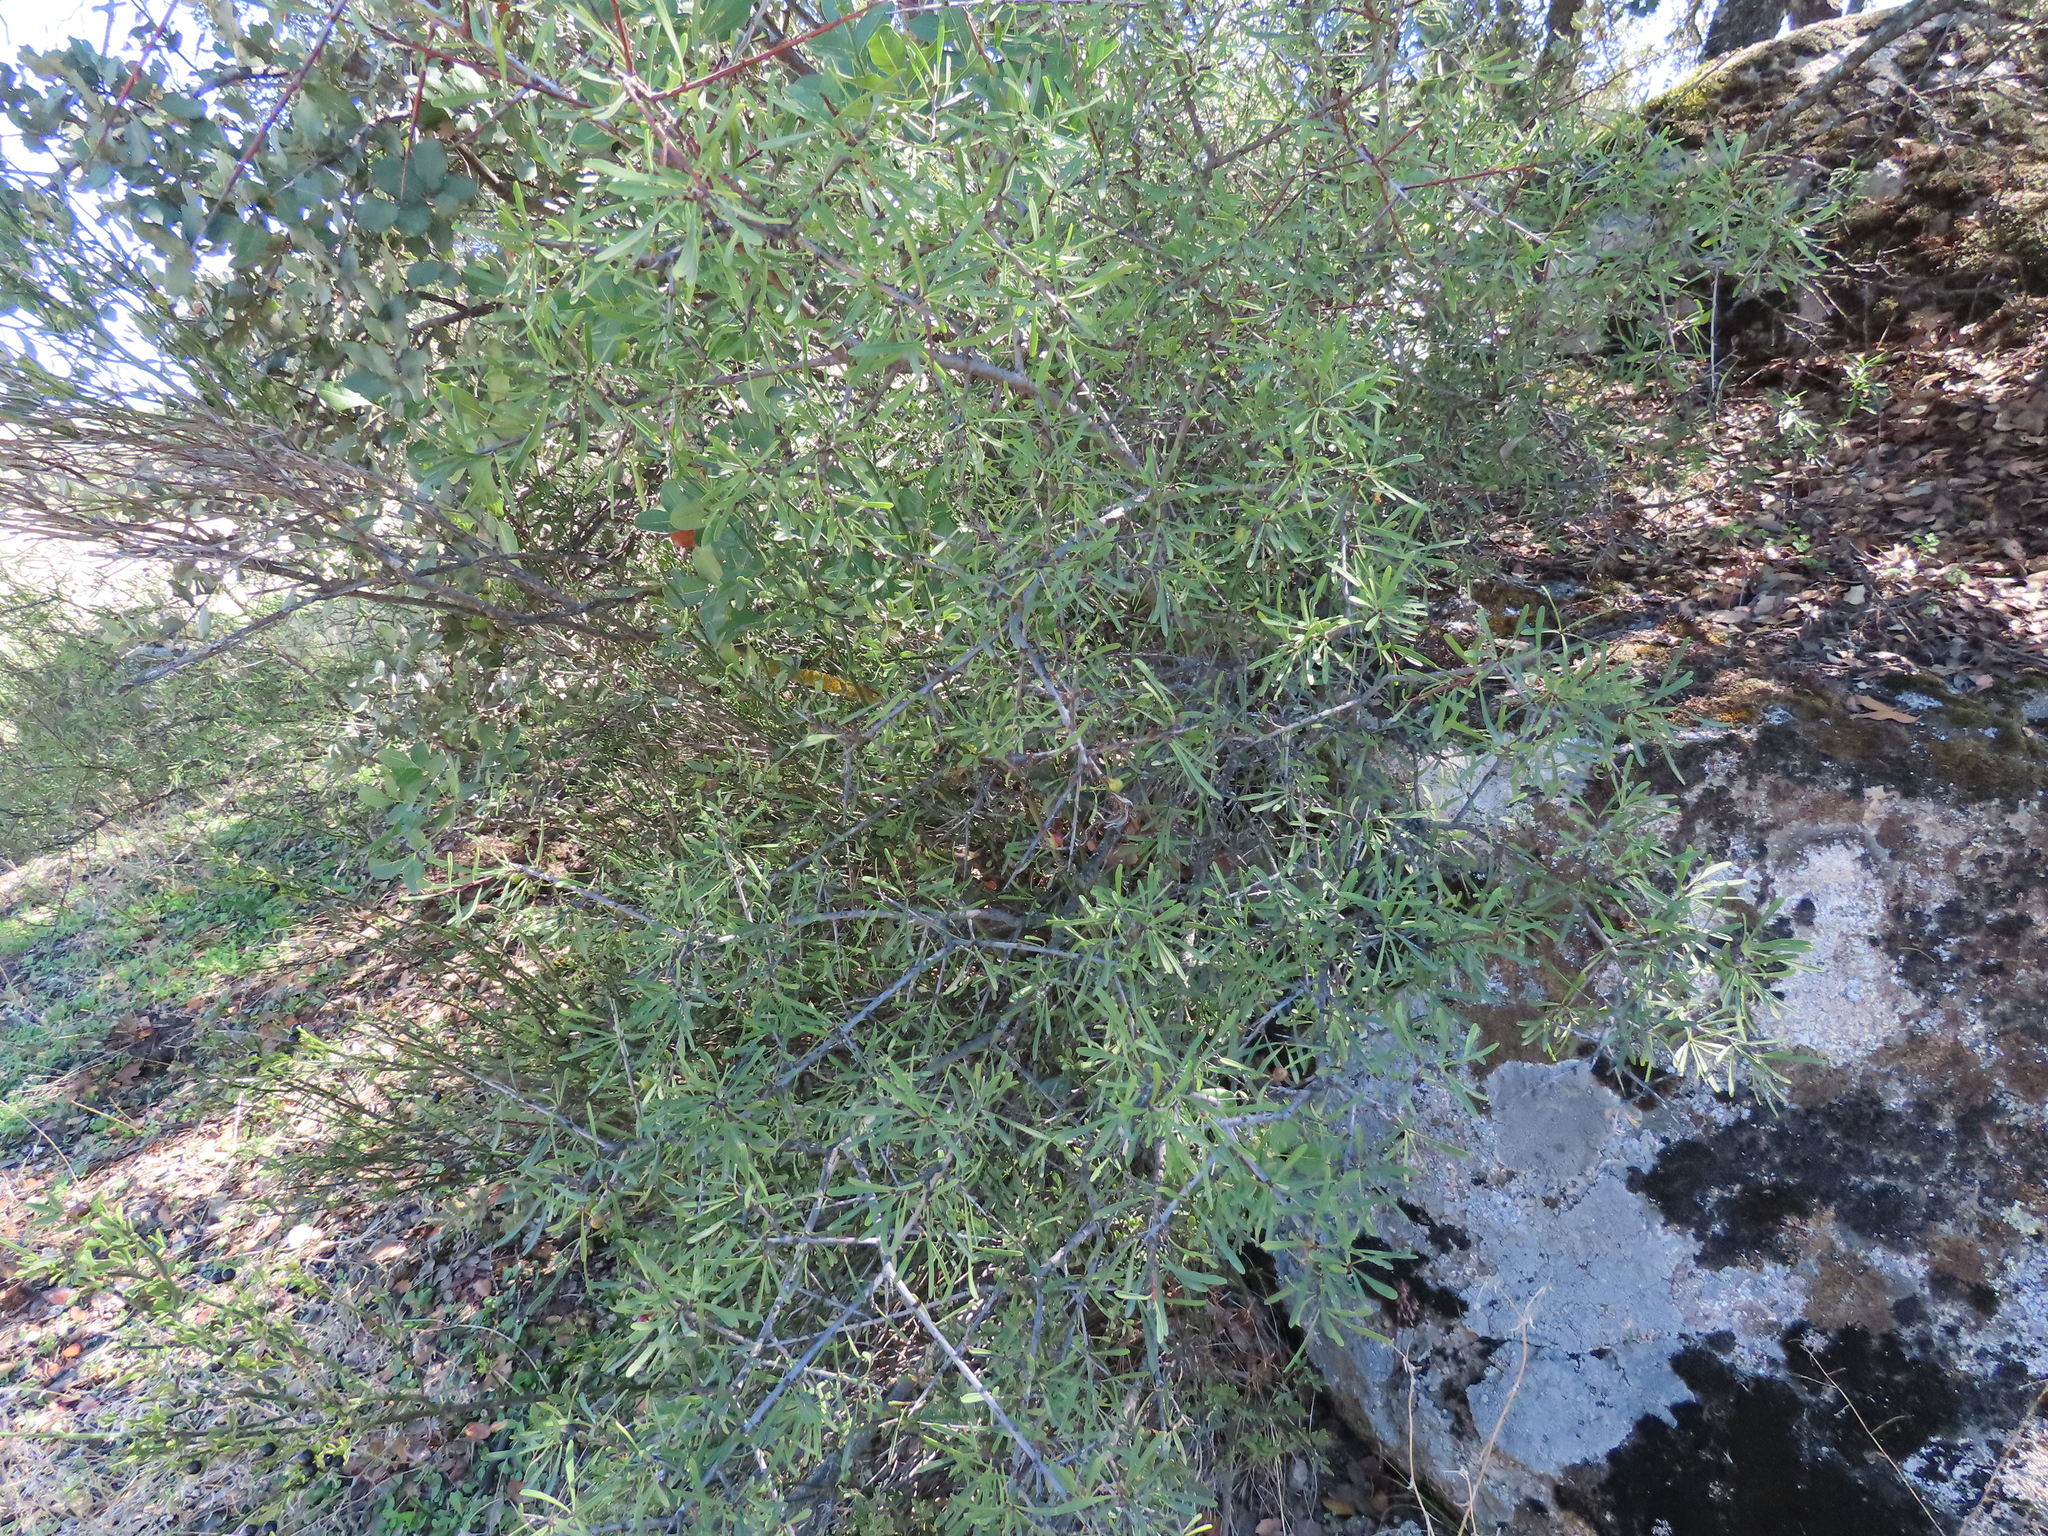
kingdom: Plantae
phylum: Tracheophyta
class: Magnoliopsida
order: Rosales
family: Rhamnaceae
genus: Rhamnus
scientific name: Rhamnus lycioides
